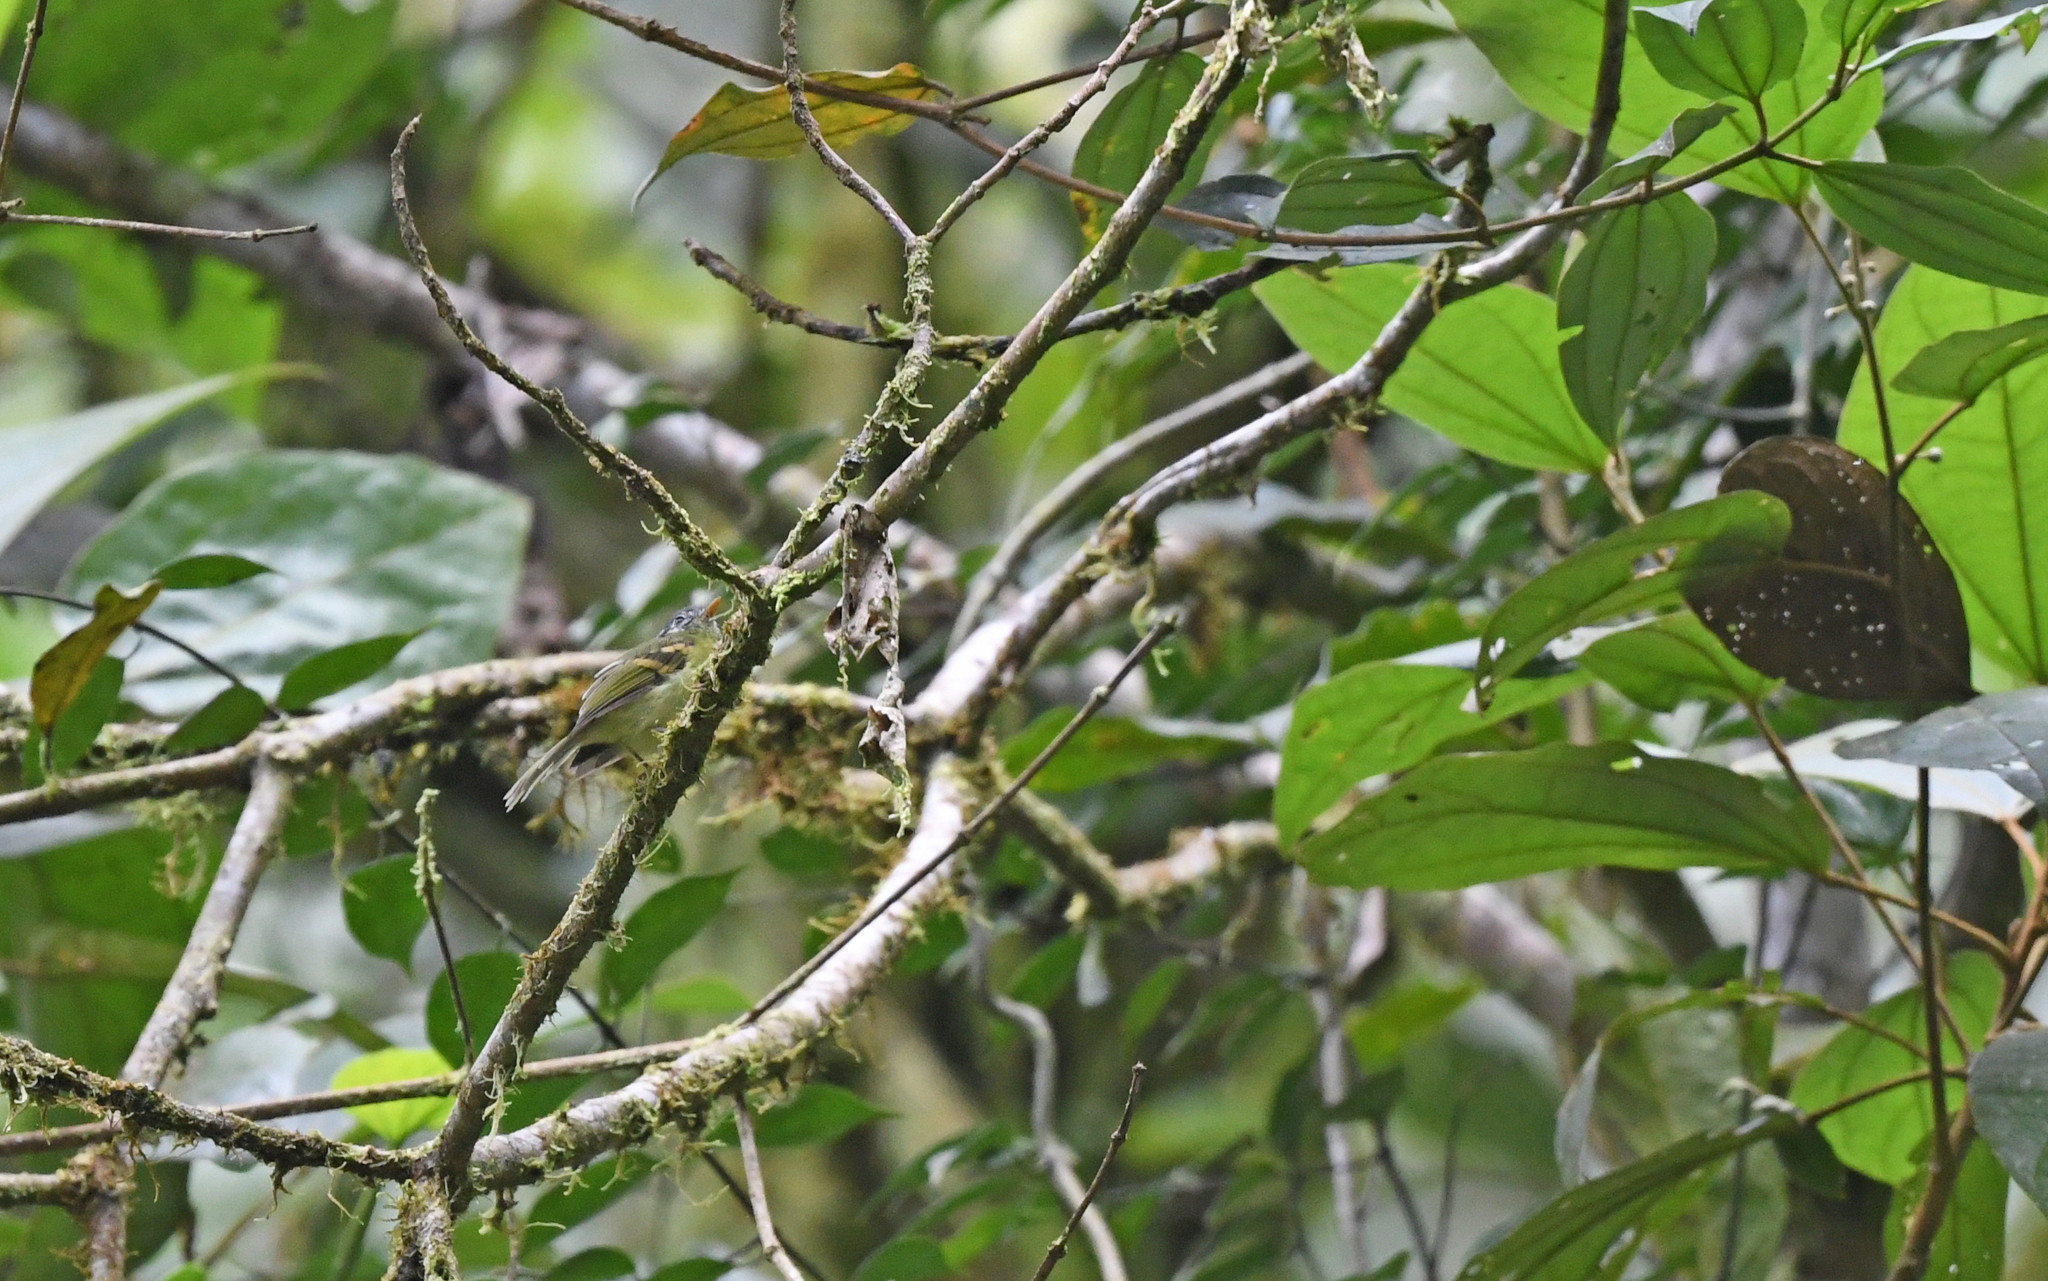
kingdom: Animalia
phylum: Chordata
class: Aves
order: Passeriformes
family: Tyrannidae
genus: Phylloscartes
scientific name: Phylloscartes poecilotis
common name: Variegated bristle-tyrant
